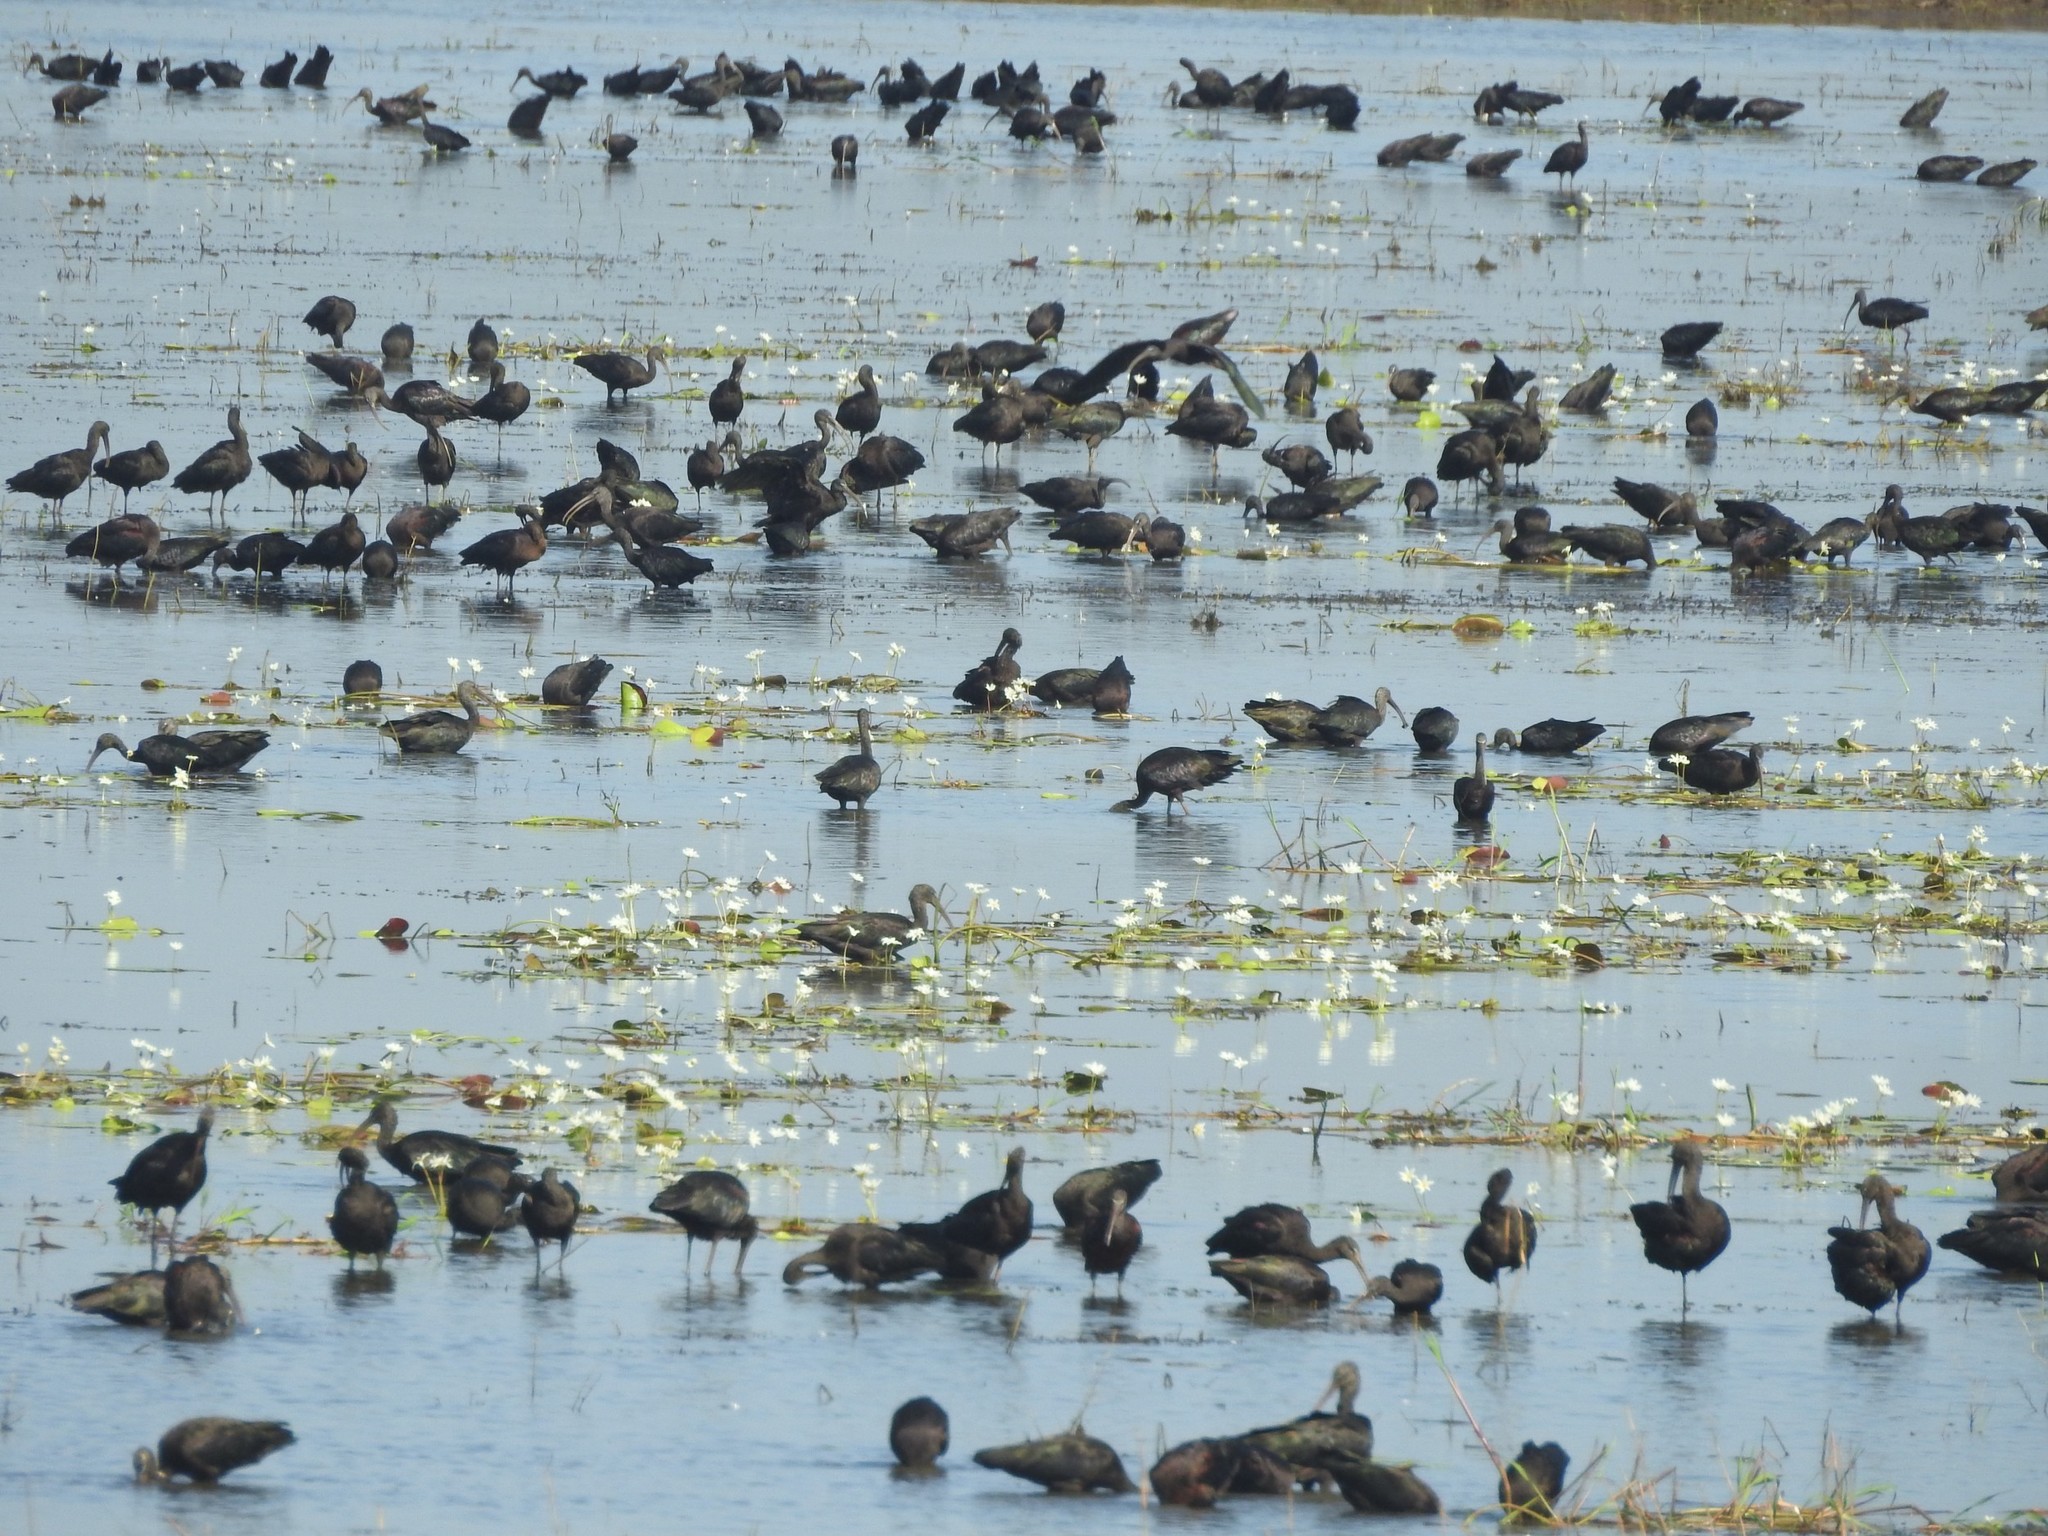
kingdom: Animalia
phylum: Chordata
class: Aves
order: Pelecaniformes
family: Threskiornithidae
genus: Plegadis
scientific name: Plegadis falcinellus
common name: Glossy ibis
